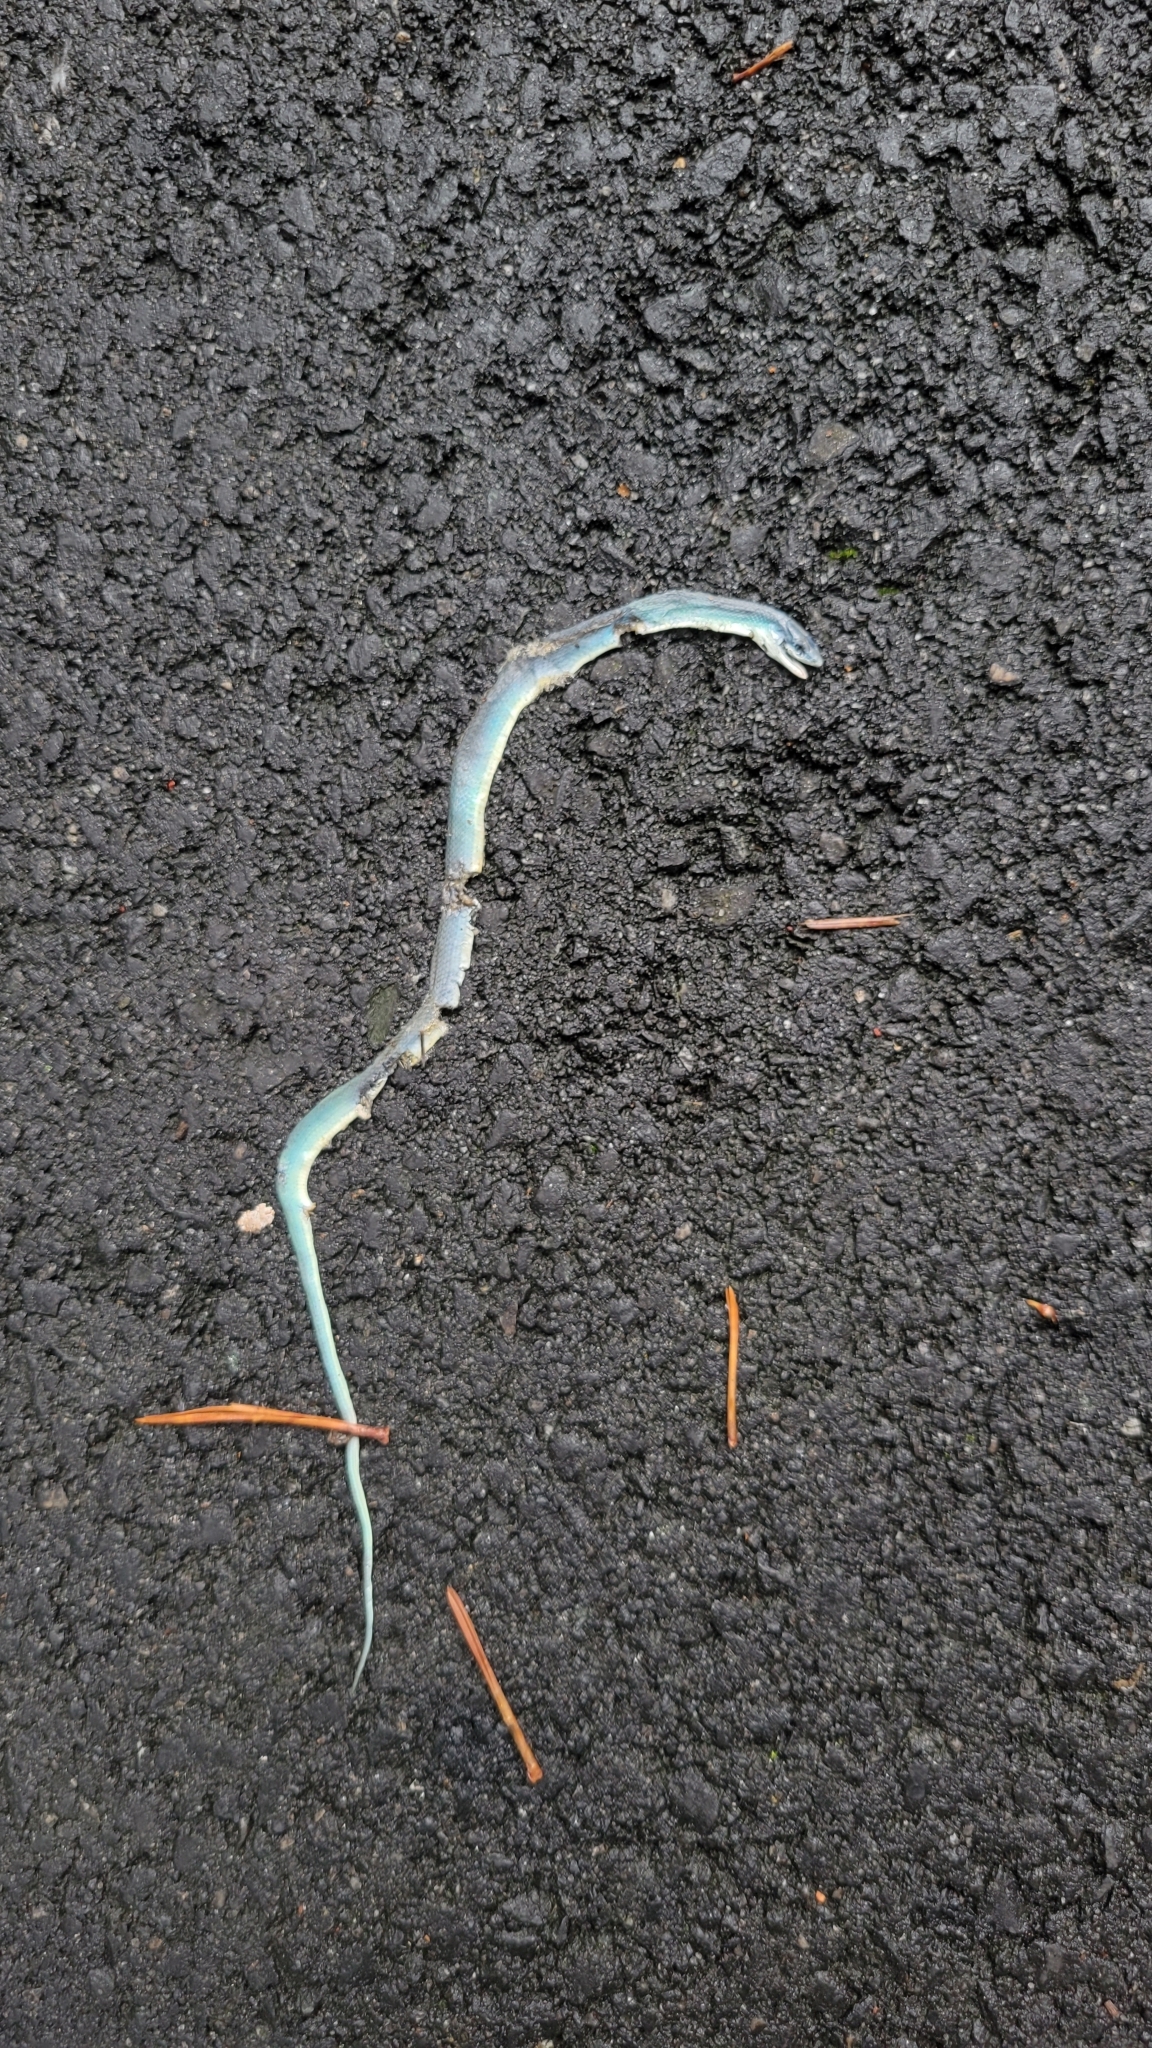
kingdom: Animalia
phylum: Chordata
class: Squamata
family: Colubridae
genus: Opheodrys
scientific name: Opheodrys aestivus
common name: Rough greensnake
